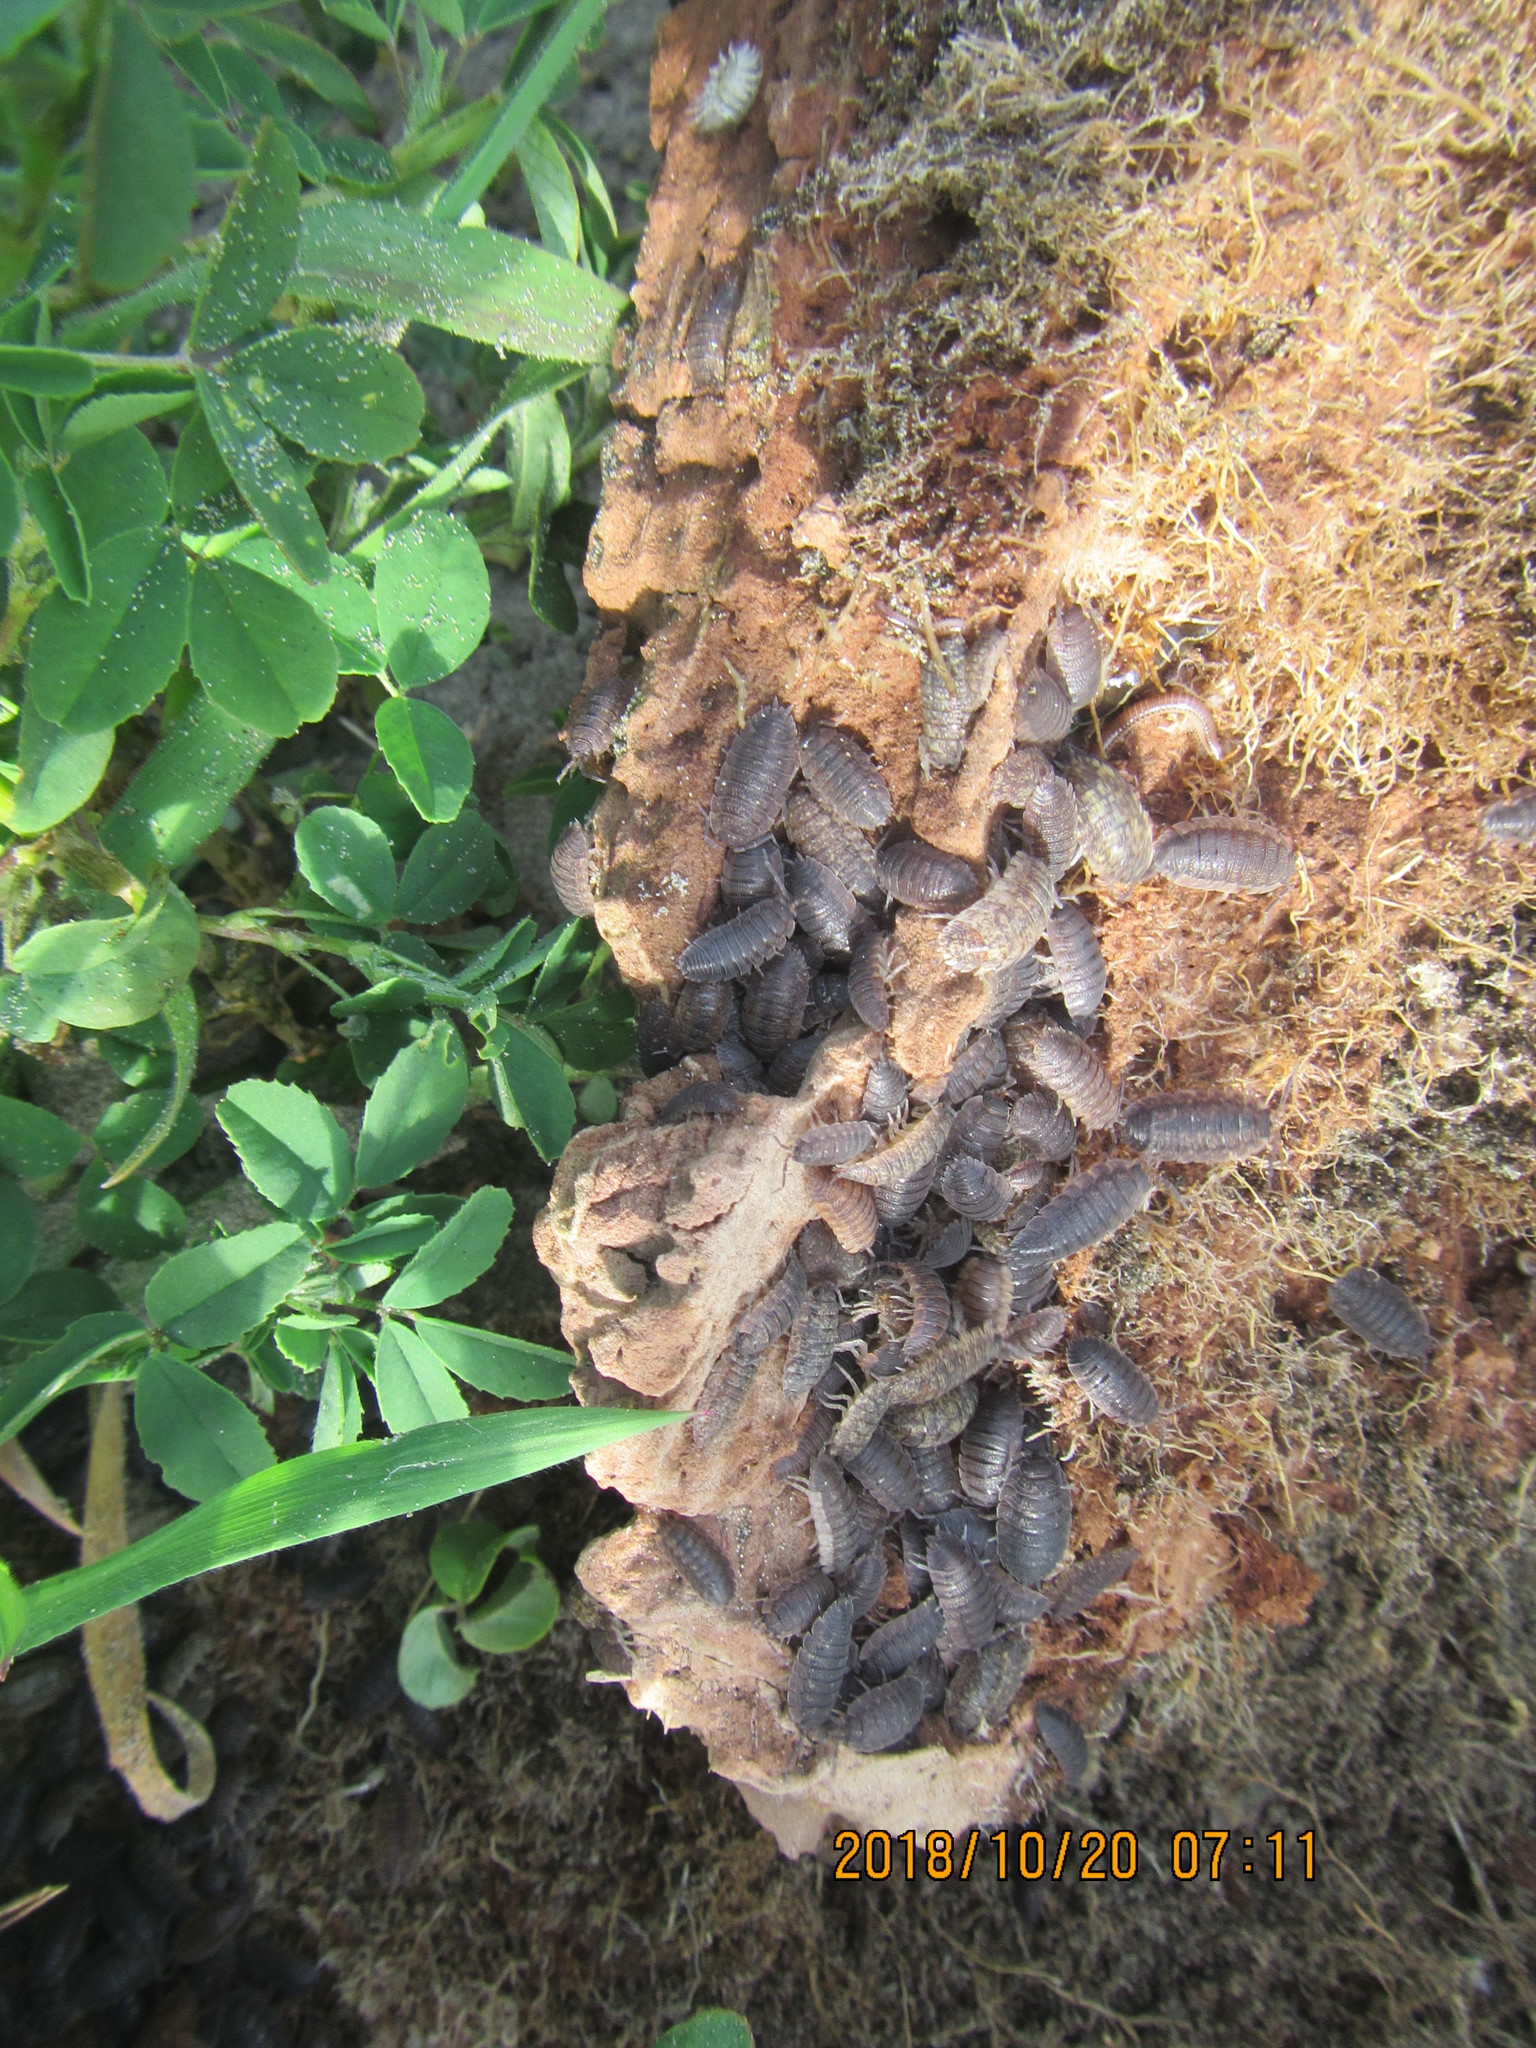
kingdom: Animalia
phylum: Arthropoda
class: Malacostraca
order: Isopoda
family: Porcellionidae
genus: Porcellio
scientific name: Porcellio scaber
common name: Common rough woodlouse
